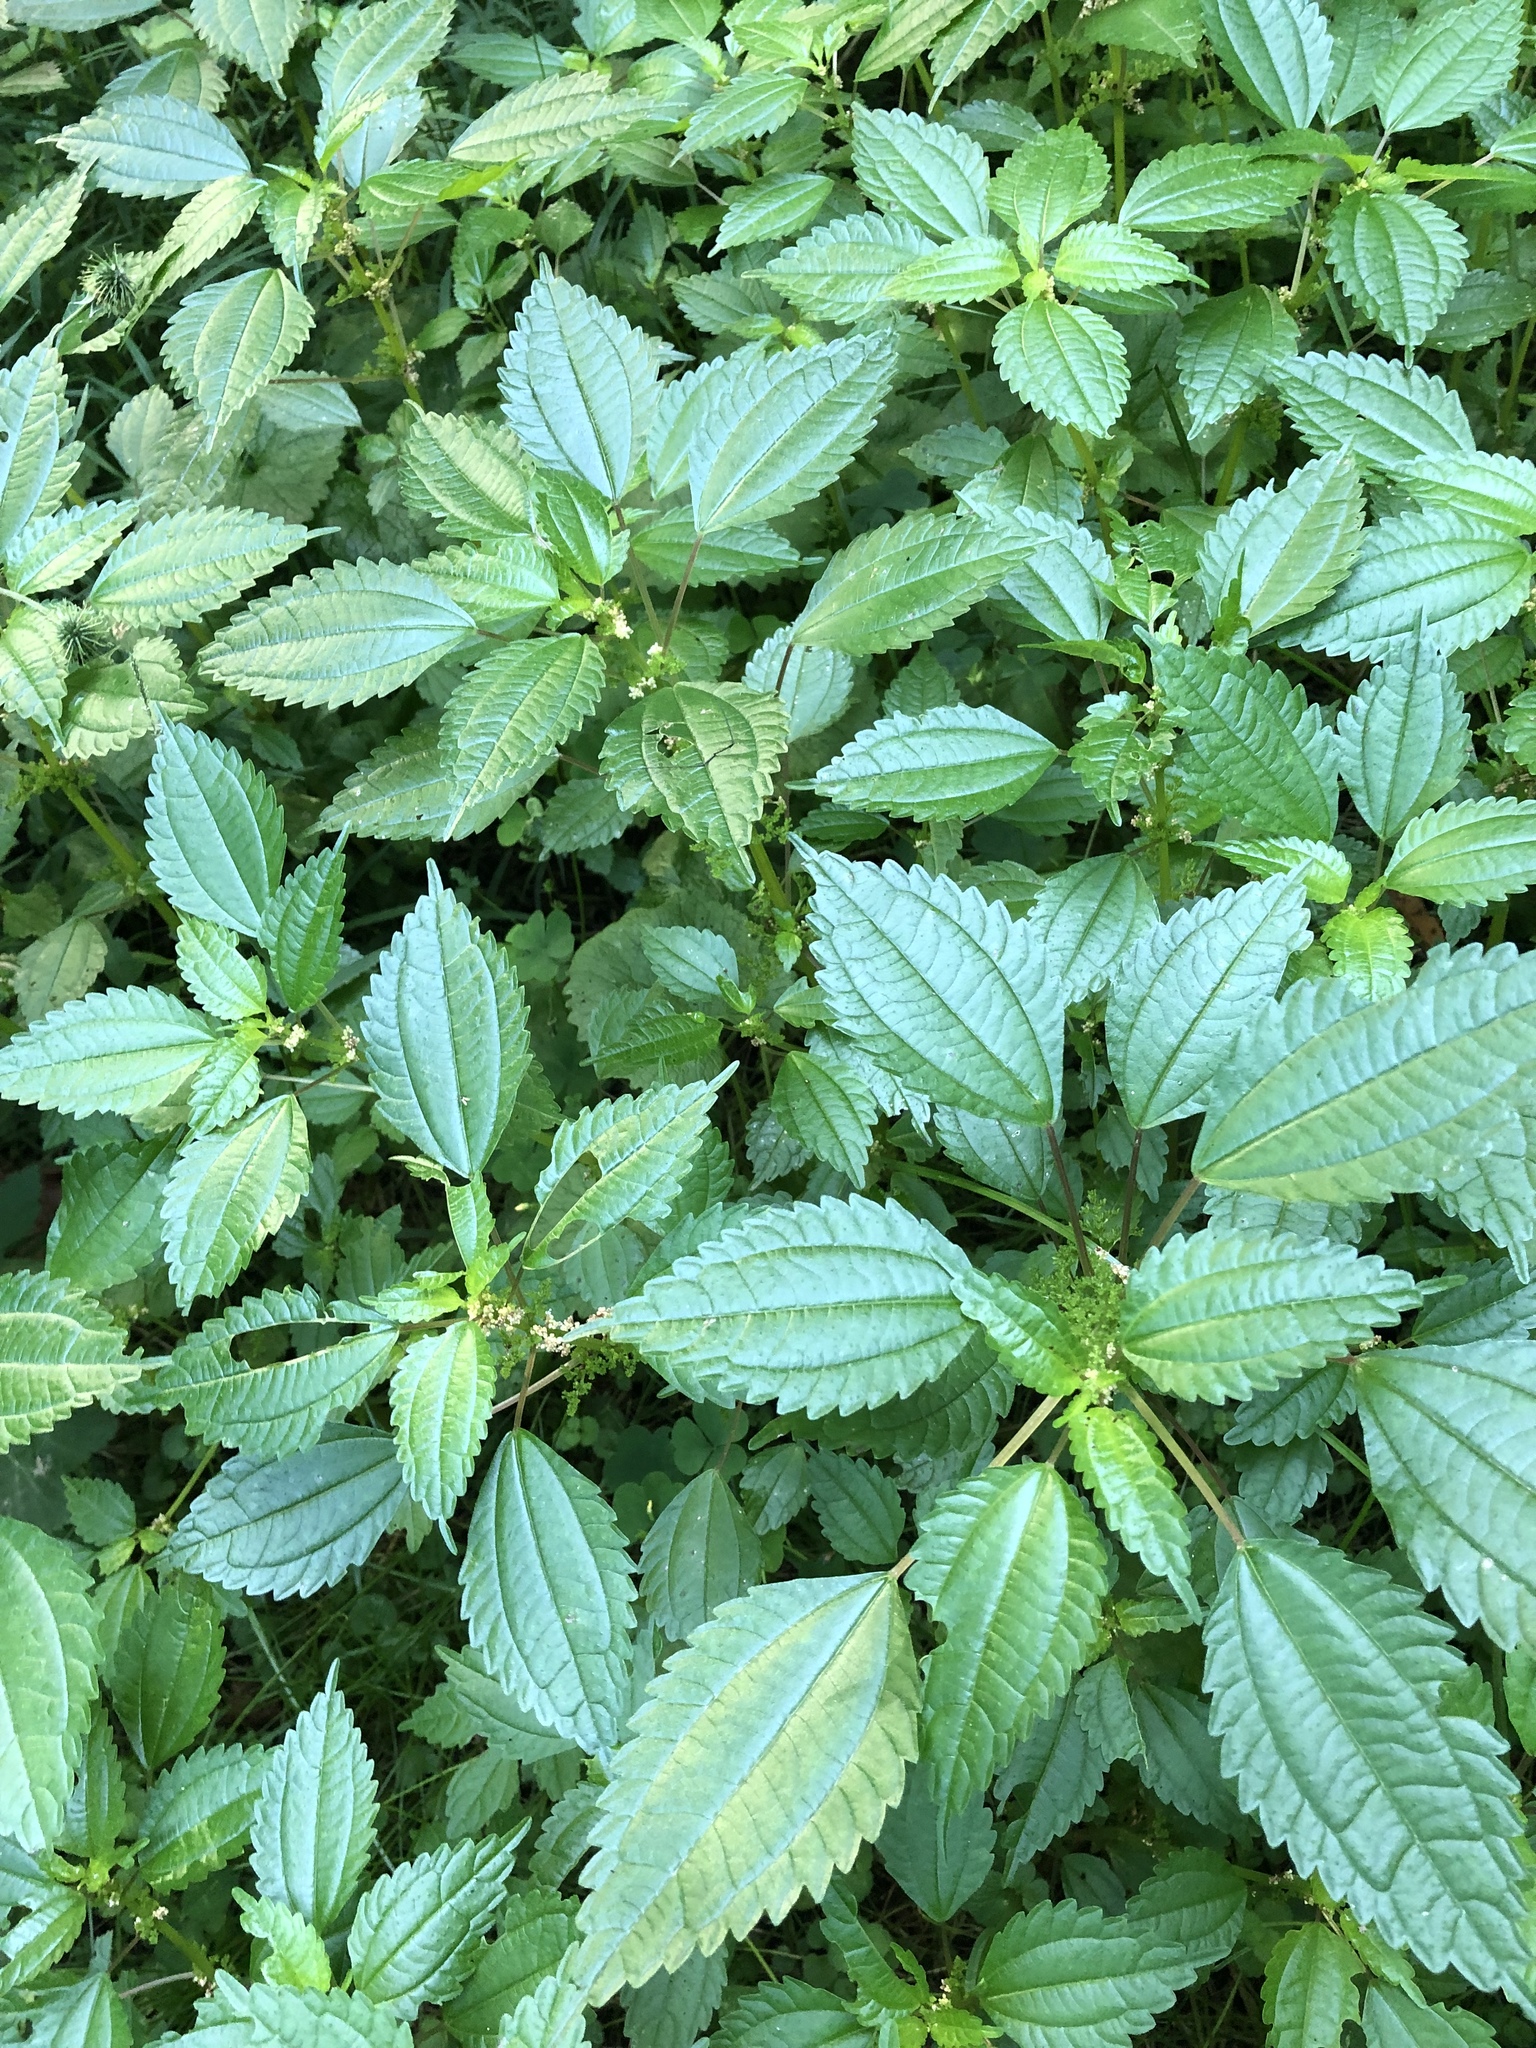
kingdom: Plantae
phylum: Tracheophyta
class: Magnoliopsida
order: Rosales
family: Urticaceae
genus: Pilea
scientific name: Pilea pumila
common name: Clearweed
